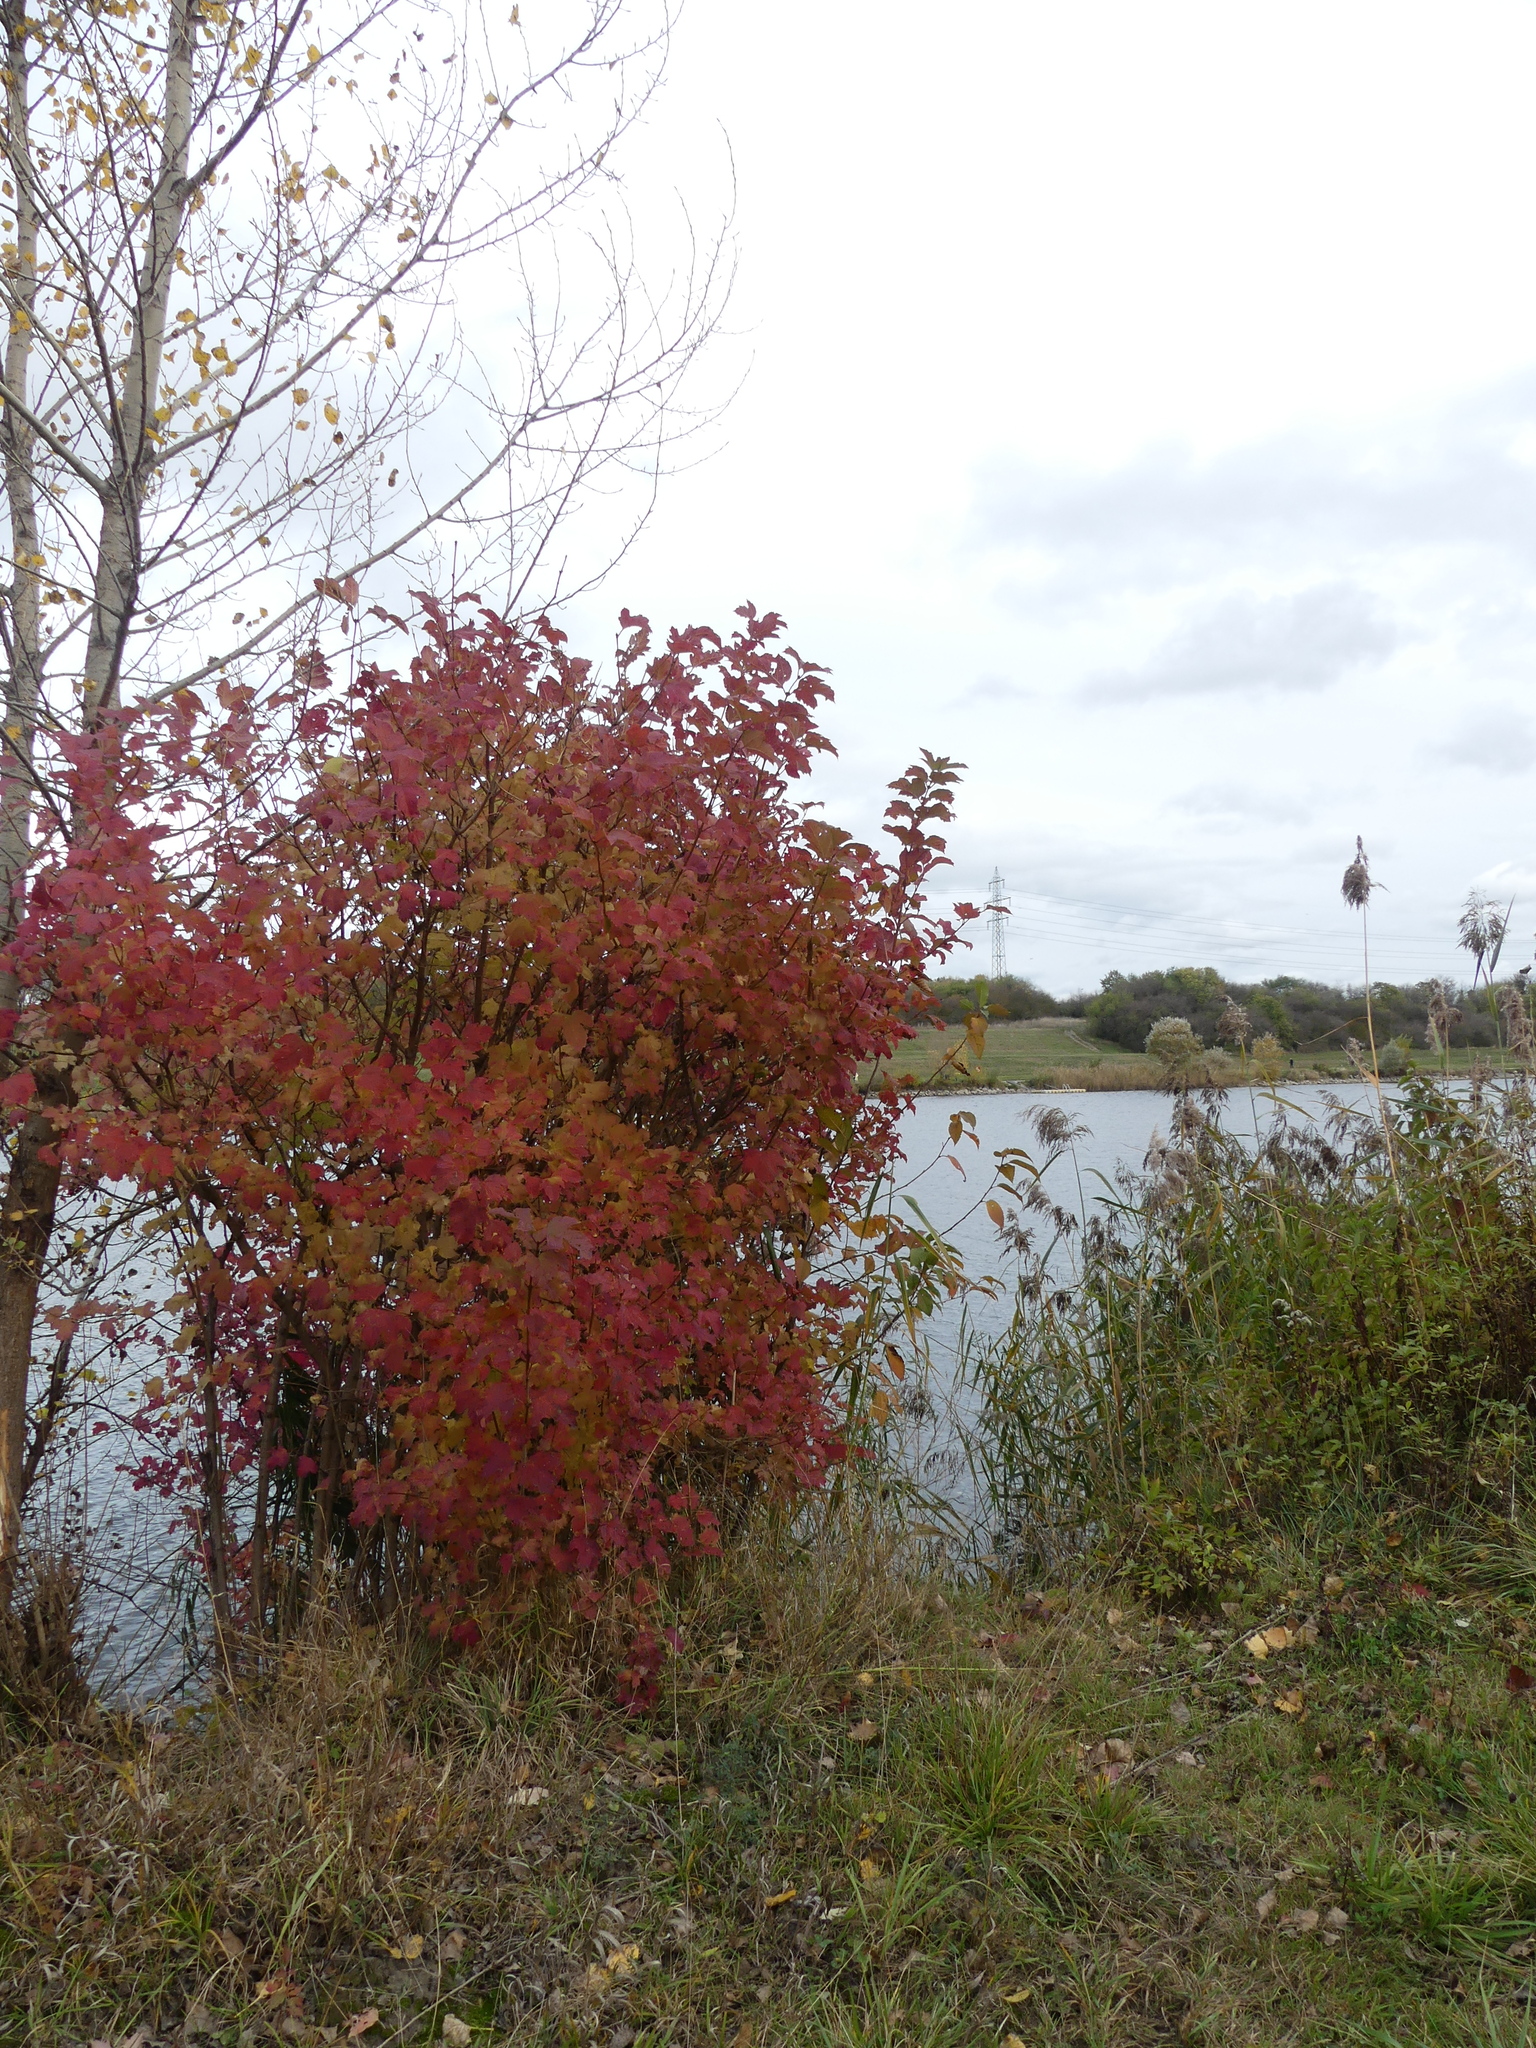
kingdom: Plantae
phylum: Tracheophyta
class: Magnoliopsida
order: Dipsacales
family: Viburnaceae
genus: Viburnum
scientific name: Viburnum opulus
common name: Guelder-rose
